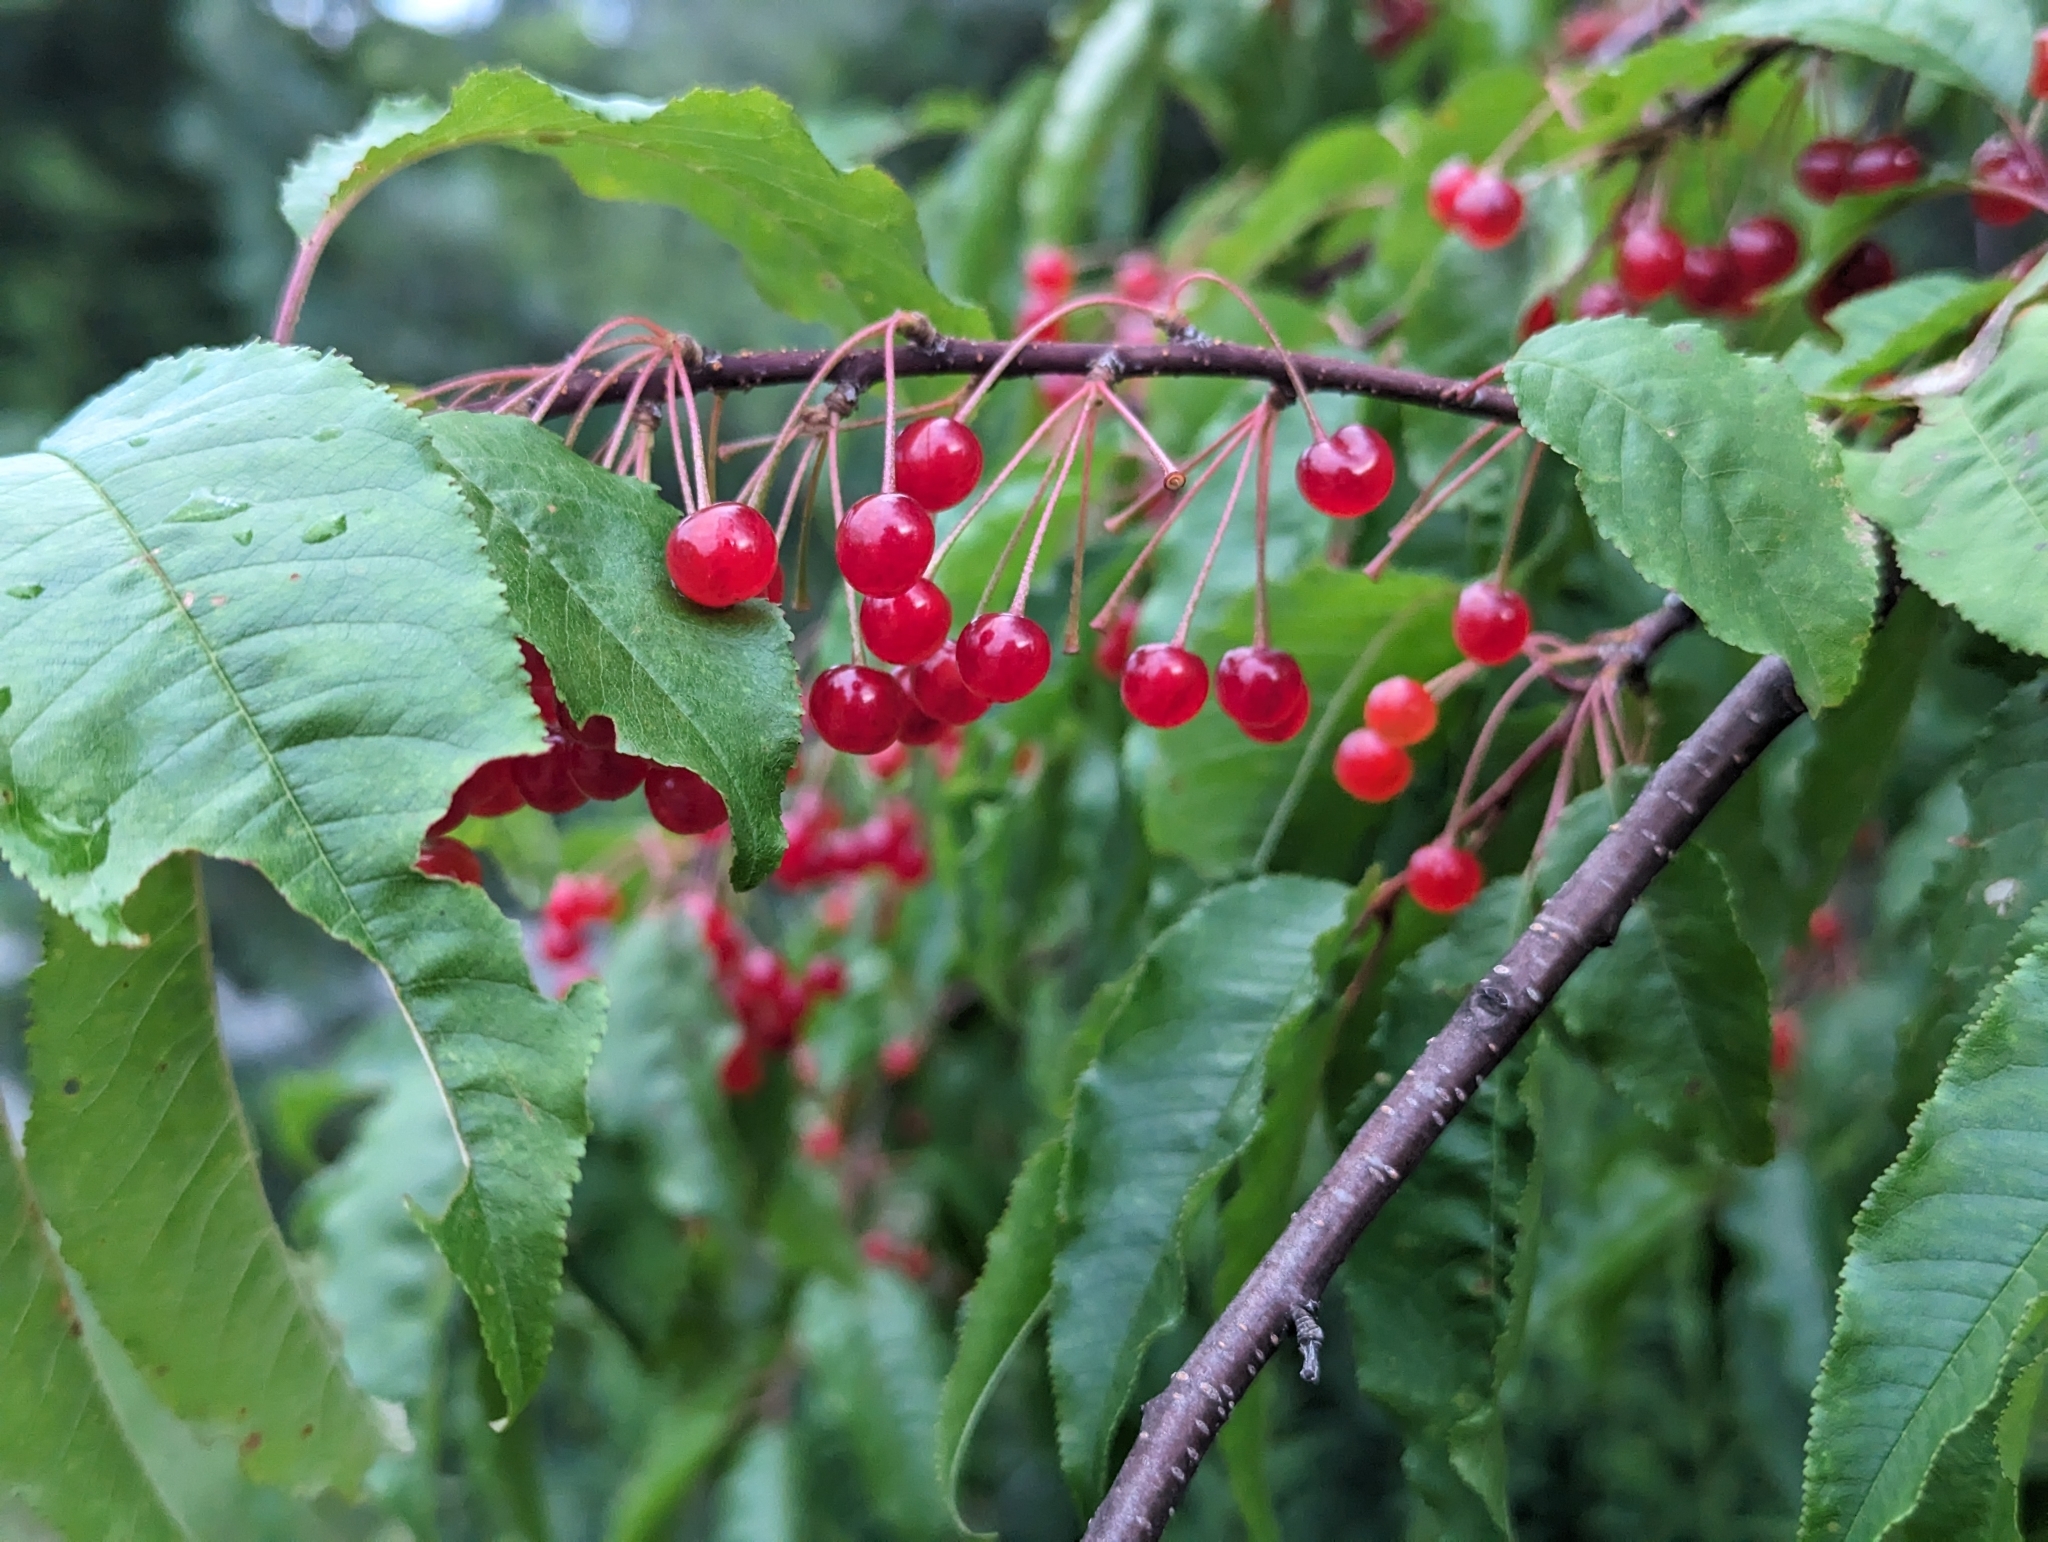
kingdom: Plantae
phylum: Tracheophyta
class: Magnoliopsida
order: Rosales
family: Rosaceae
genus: Prunus
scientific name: Prunus pensylvanica
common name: Pin cherry
